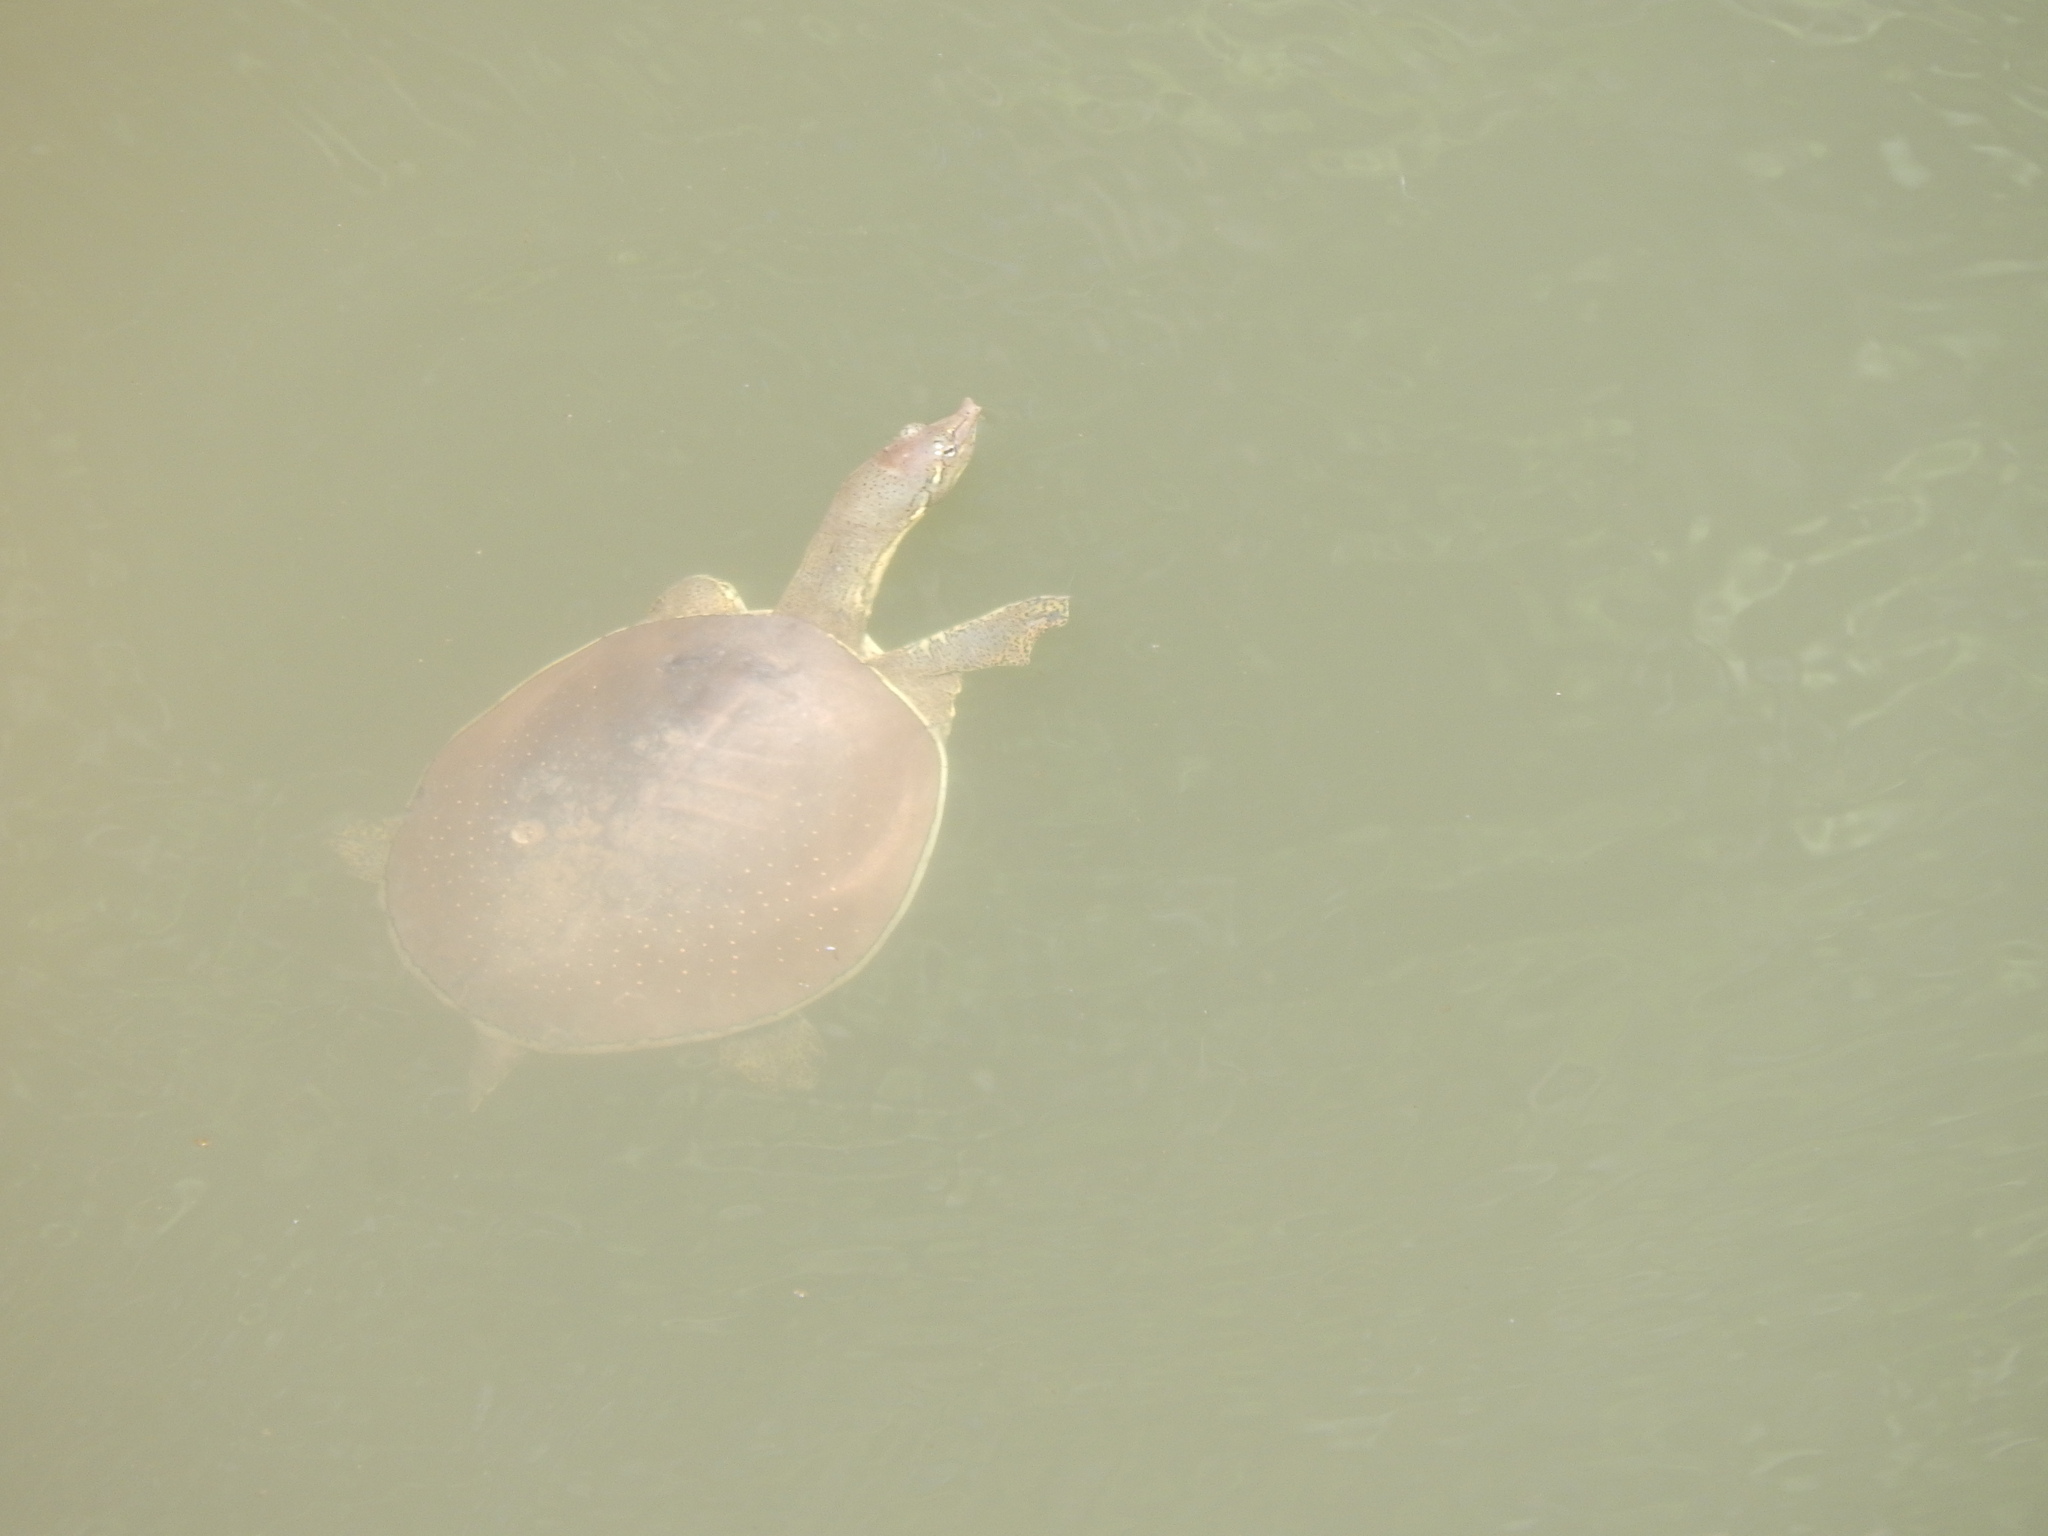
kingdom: Animalia
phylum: Chordata
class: Testudines
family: Trionychidae
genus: Apalone
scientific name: Apalone spinifera
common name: Spiny softshell turtle
